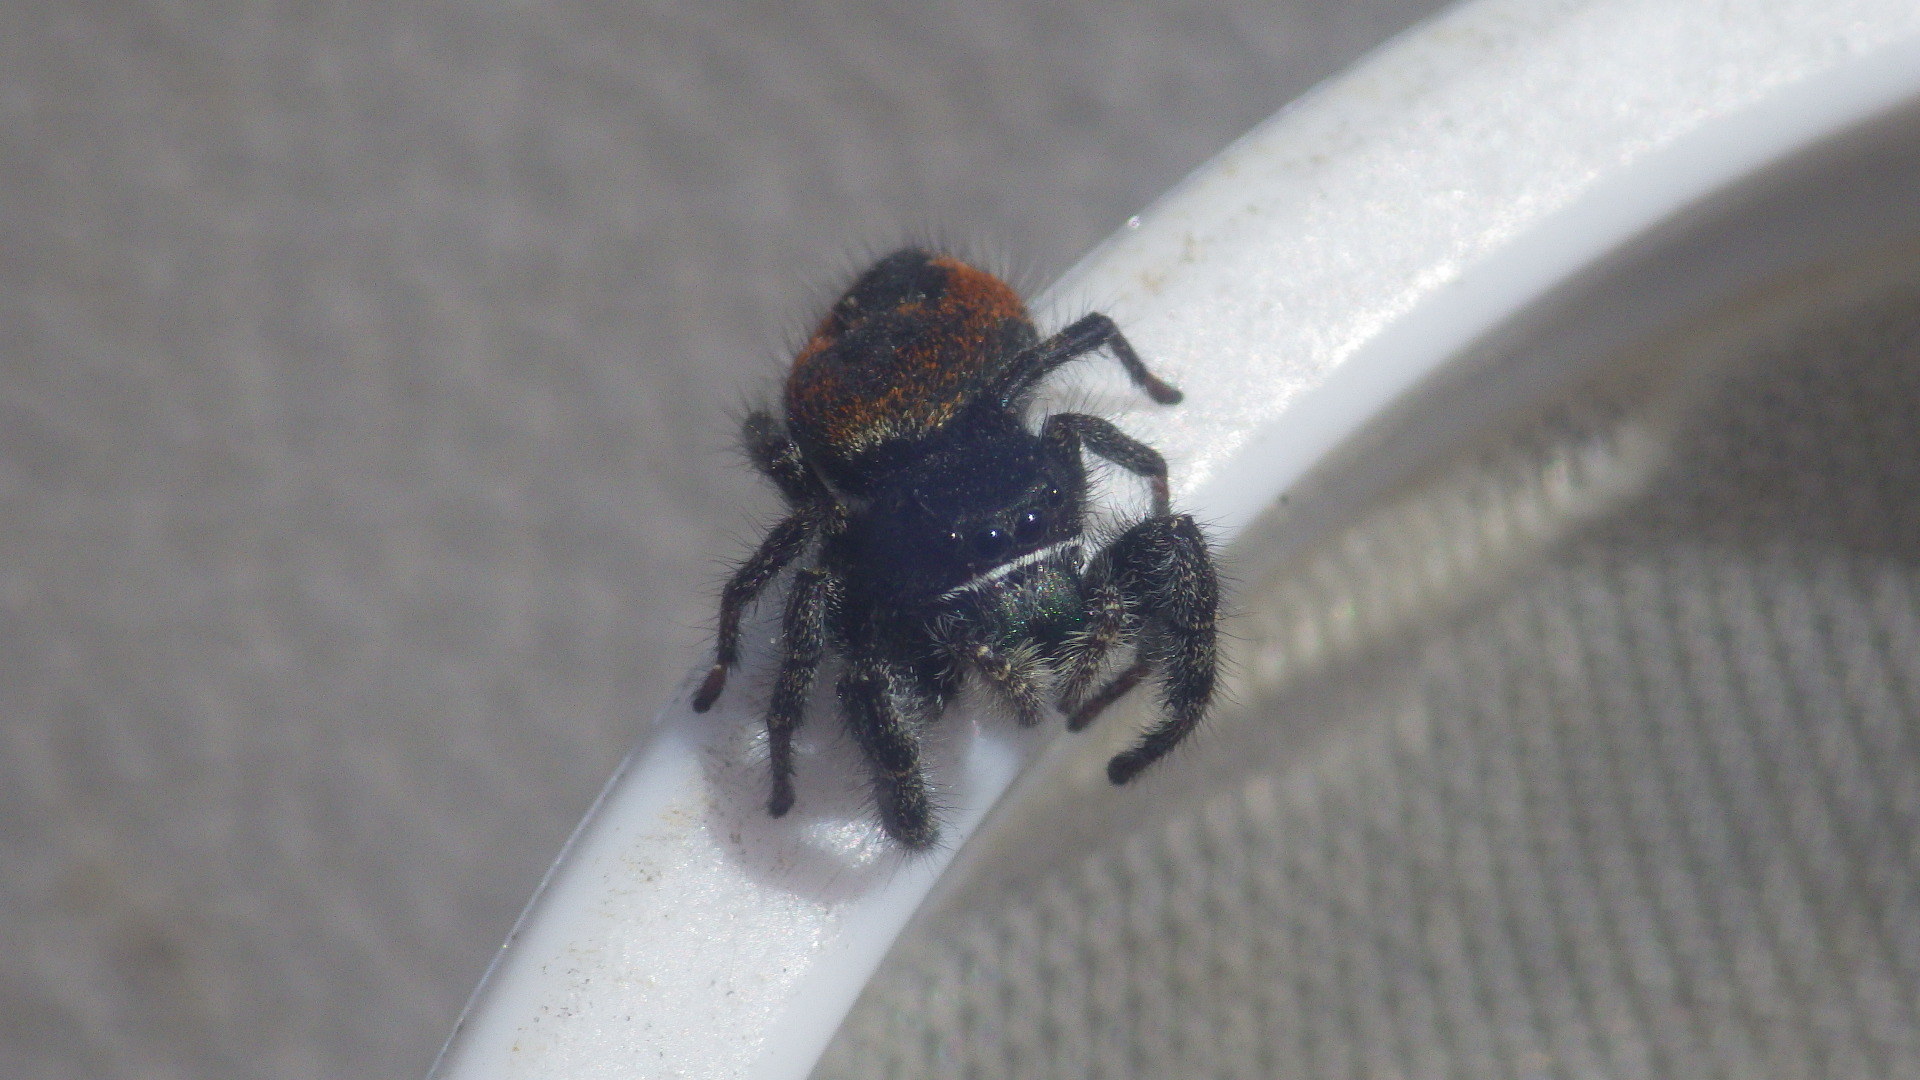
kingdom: Animalia
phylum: Arthropoda
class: Arachnida
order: Araneae
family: Salticidae
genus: Phidippus
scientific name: Phidippus johnsoni
